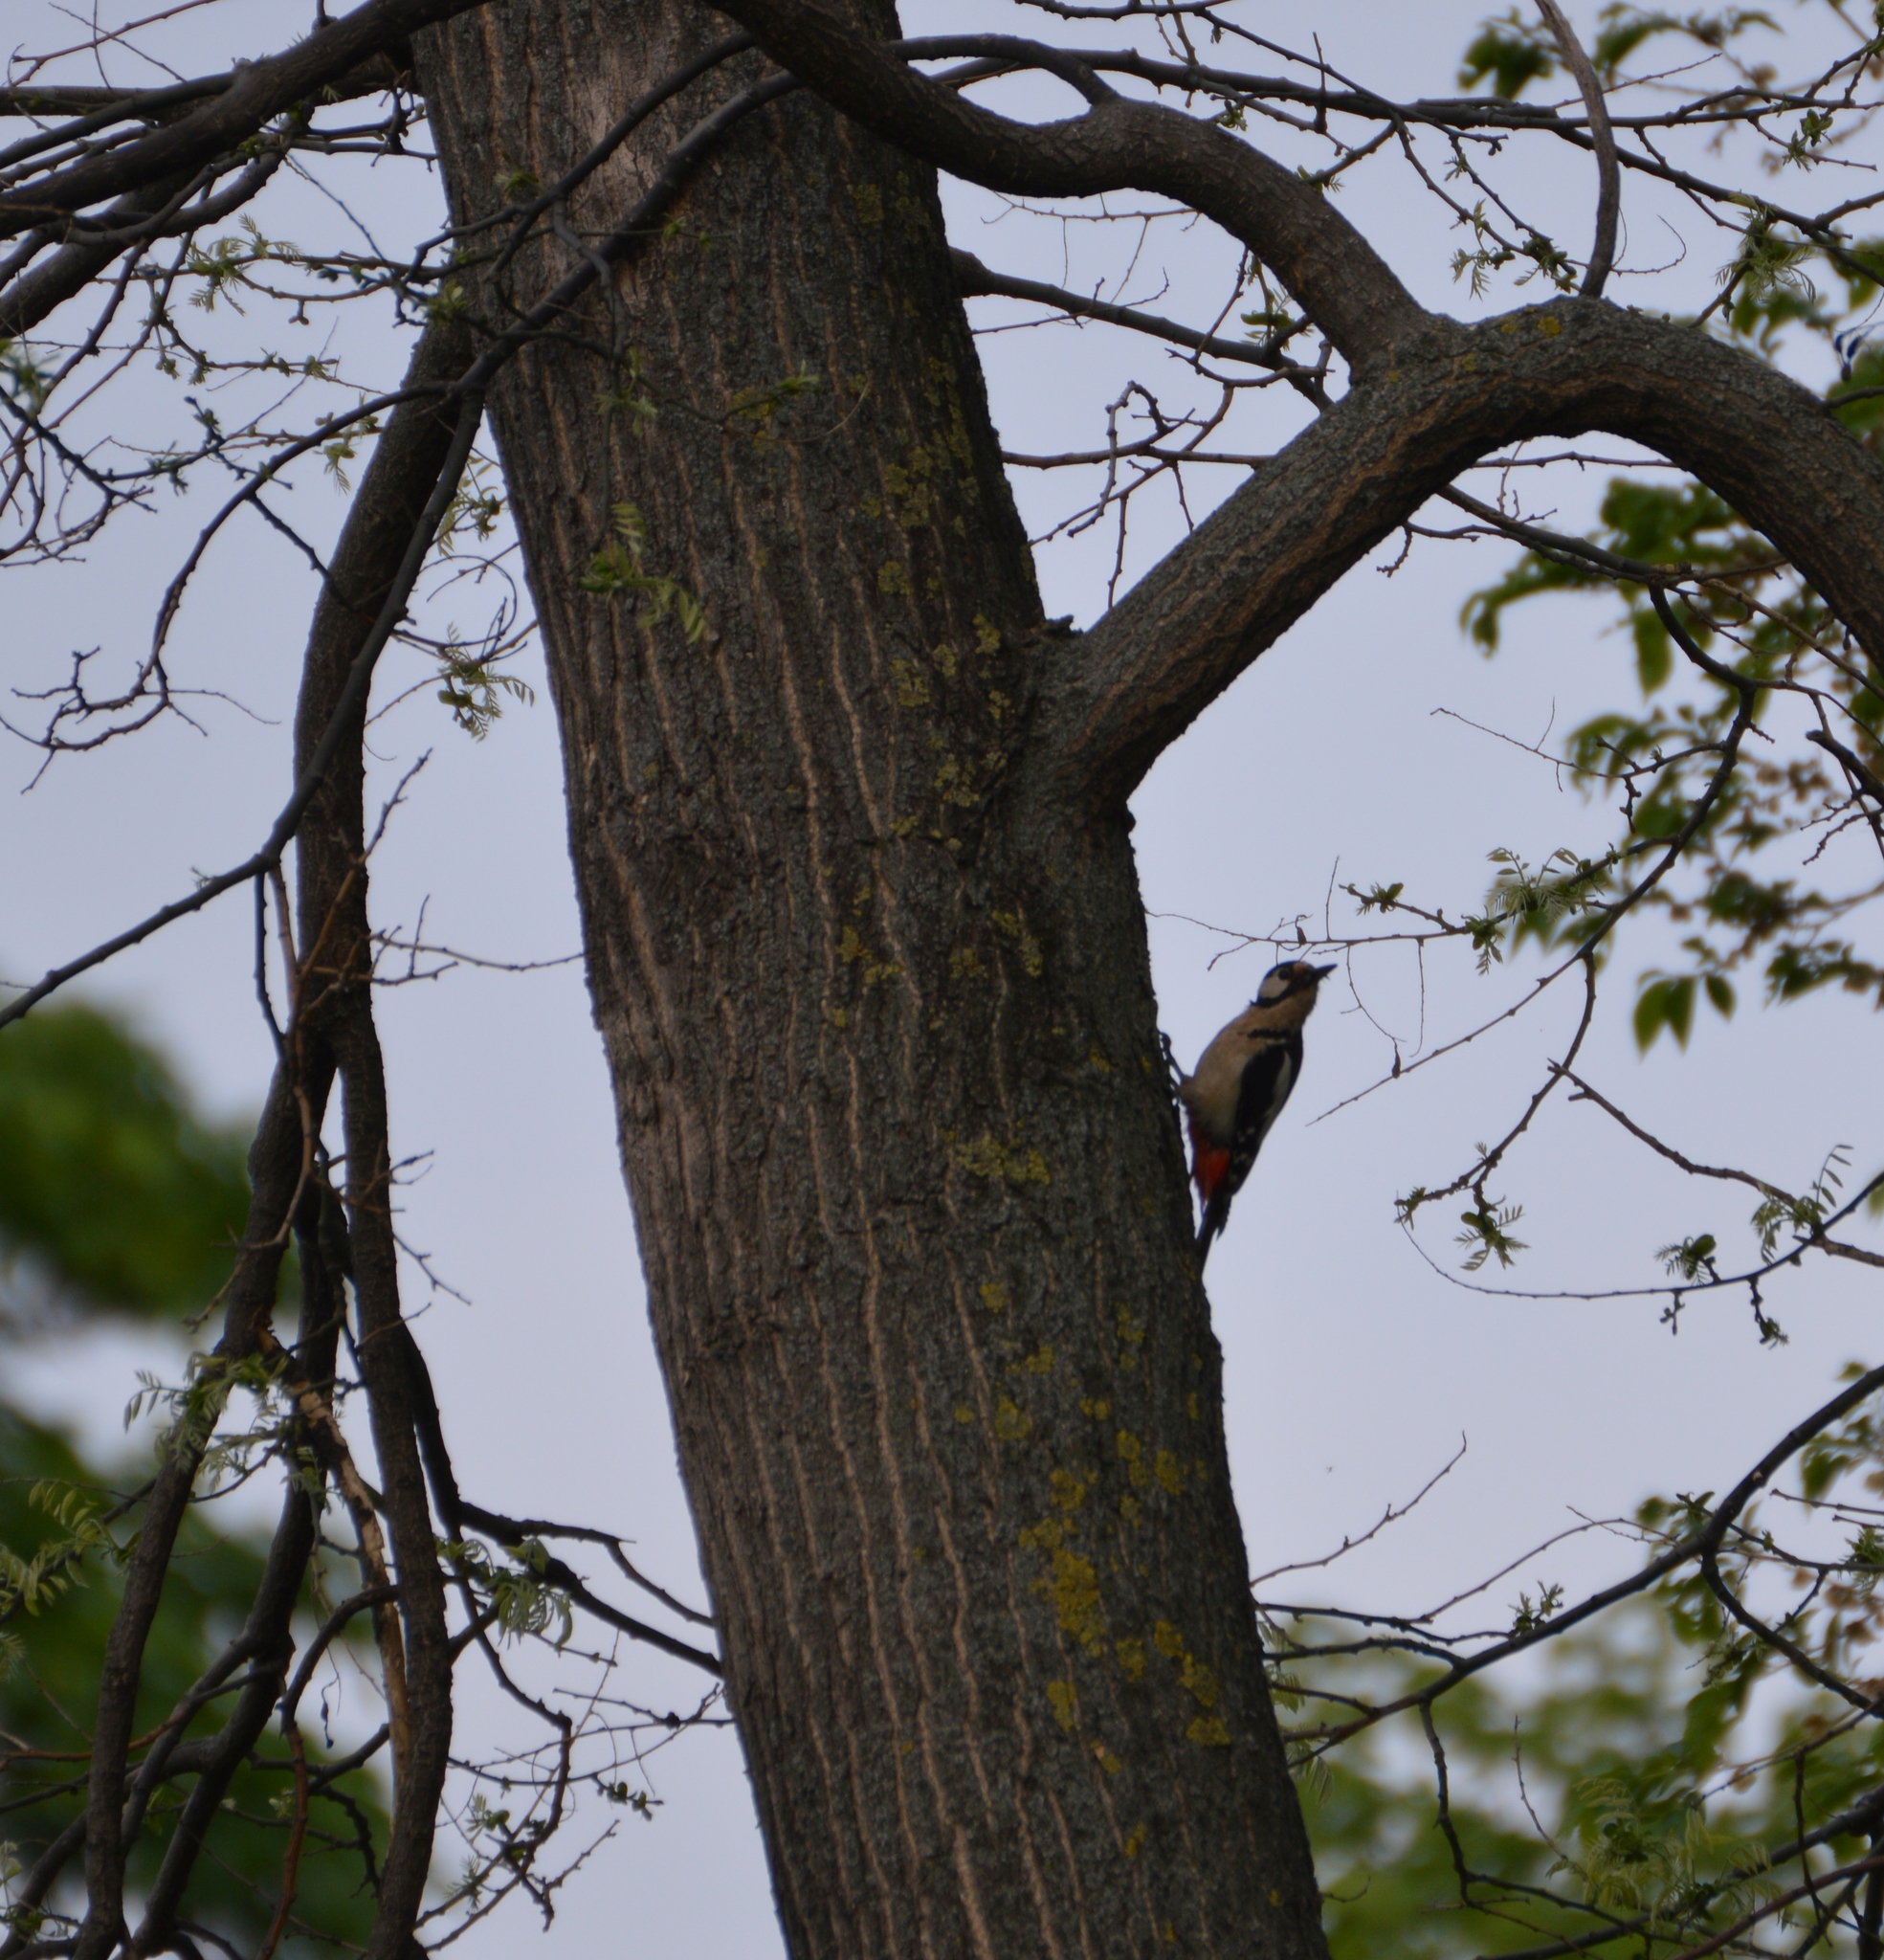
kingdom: Animalia
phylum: Chordata
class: Aves
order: Piciformes
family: Picidae
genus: Dendrocopos
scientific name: Dendrocopos major
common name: Great spotted woodpecker
